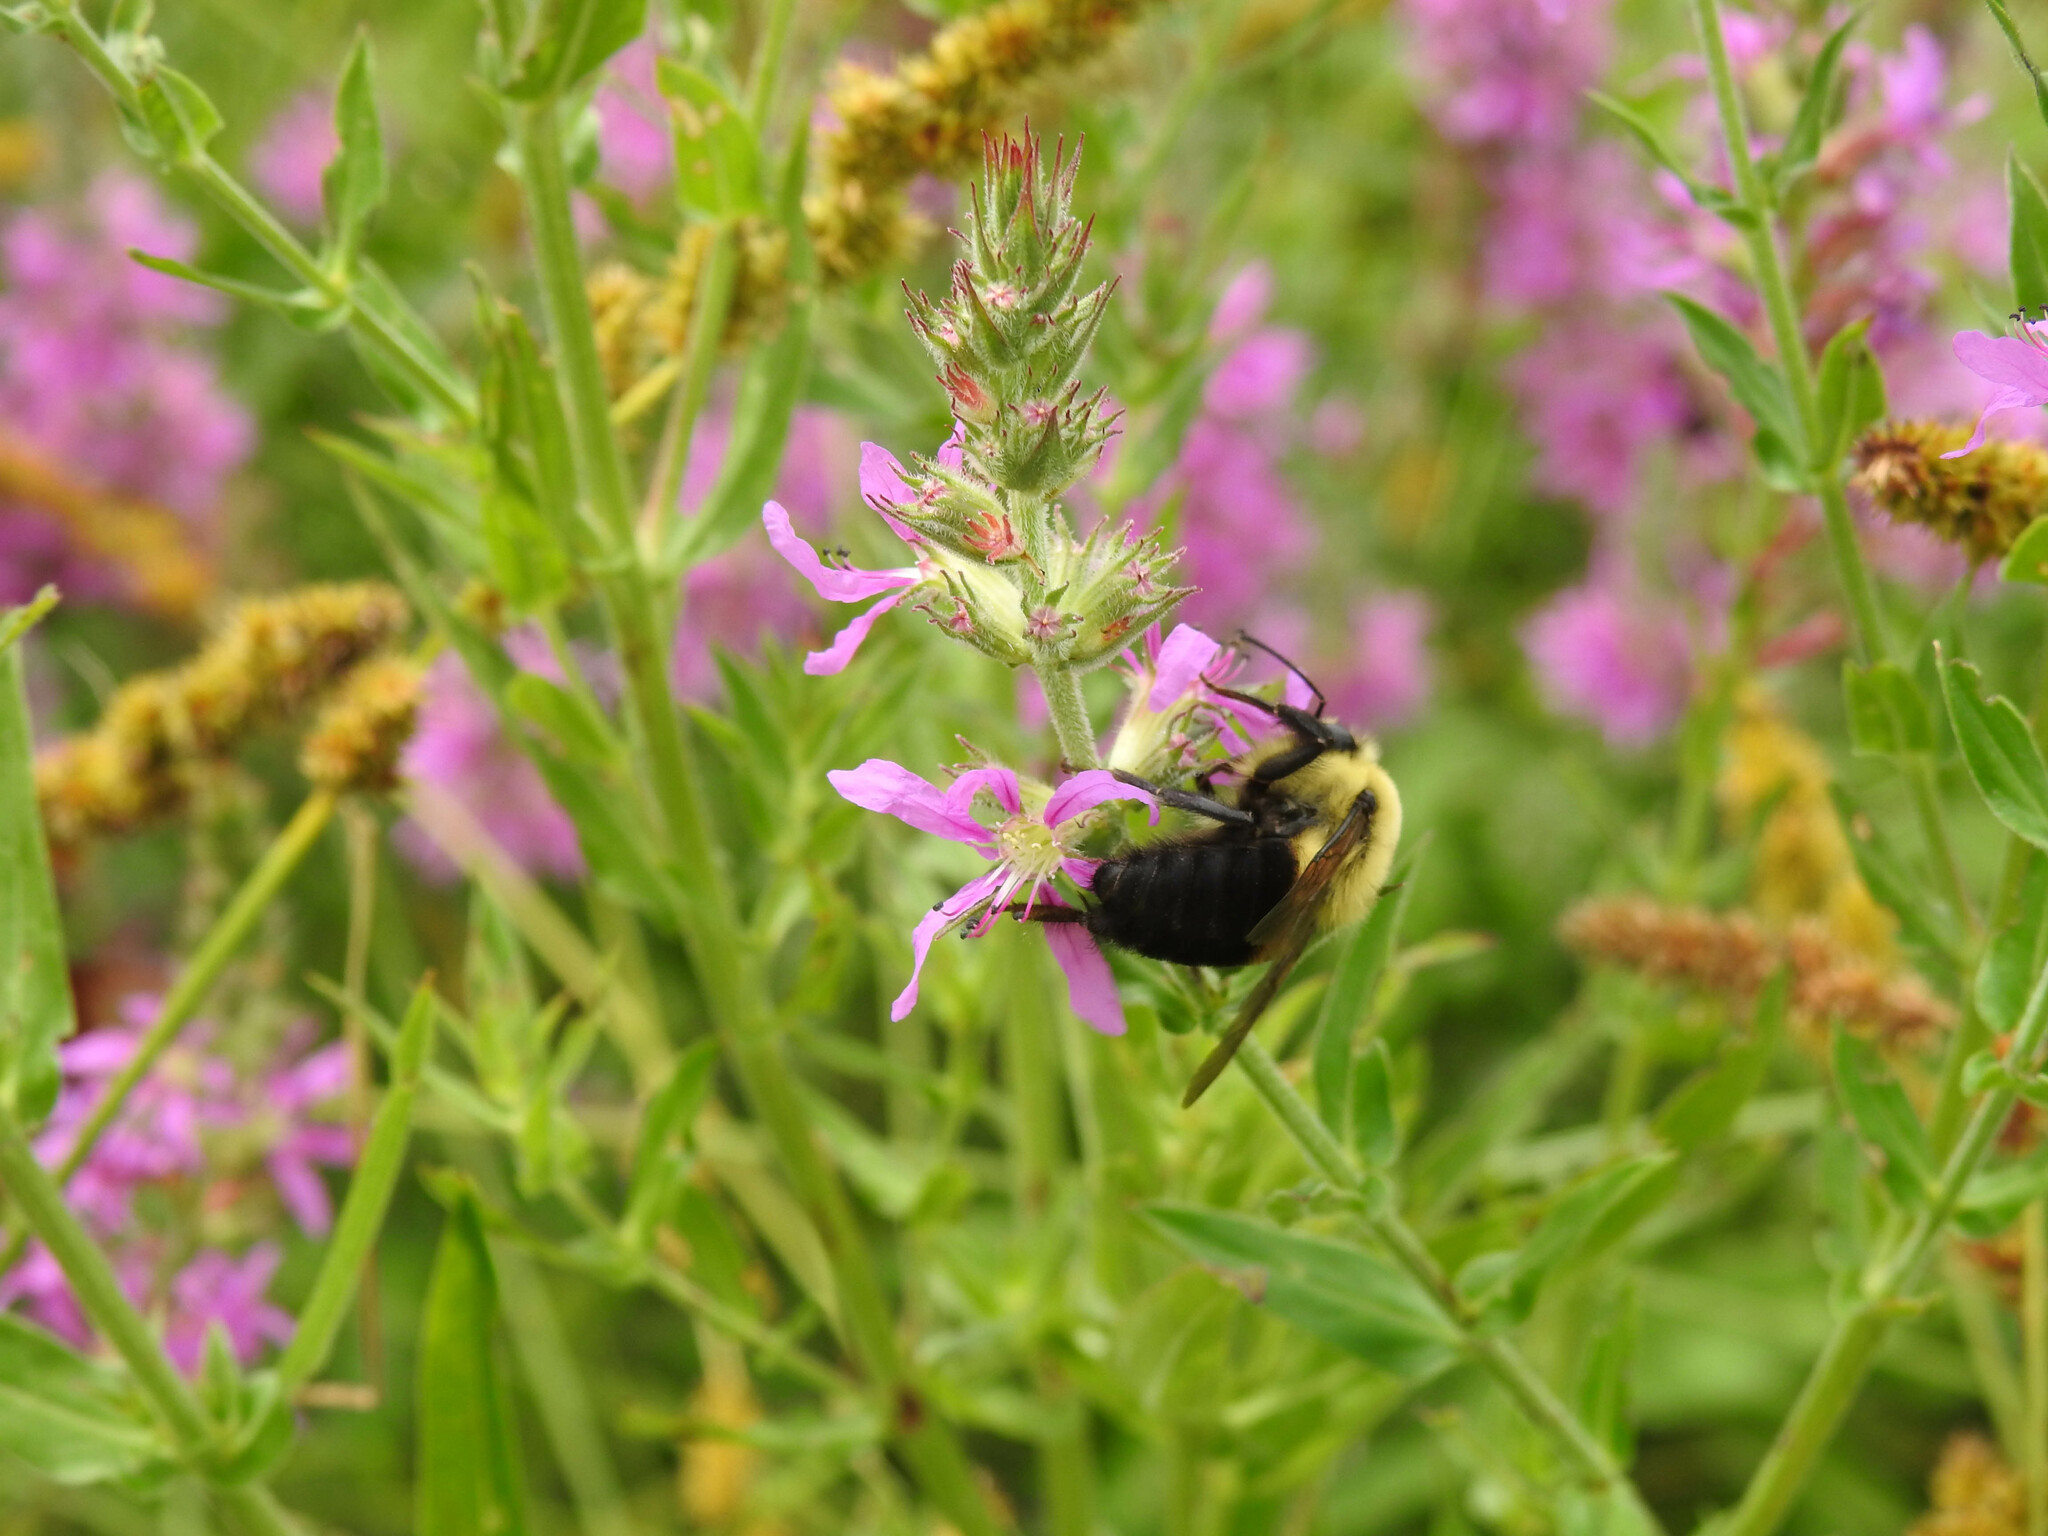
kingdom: Animalia
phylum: Arthropoda
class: Insecta
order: Hymenoptera
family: Apidae
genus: Bombus
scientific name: Bombus griseocollis
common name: Brown-belted bumble bee
